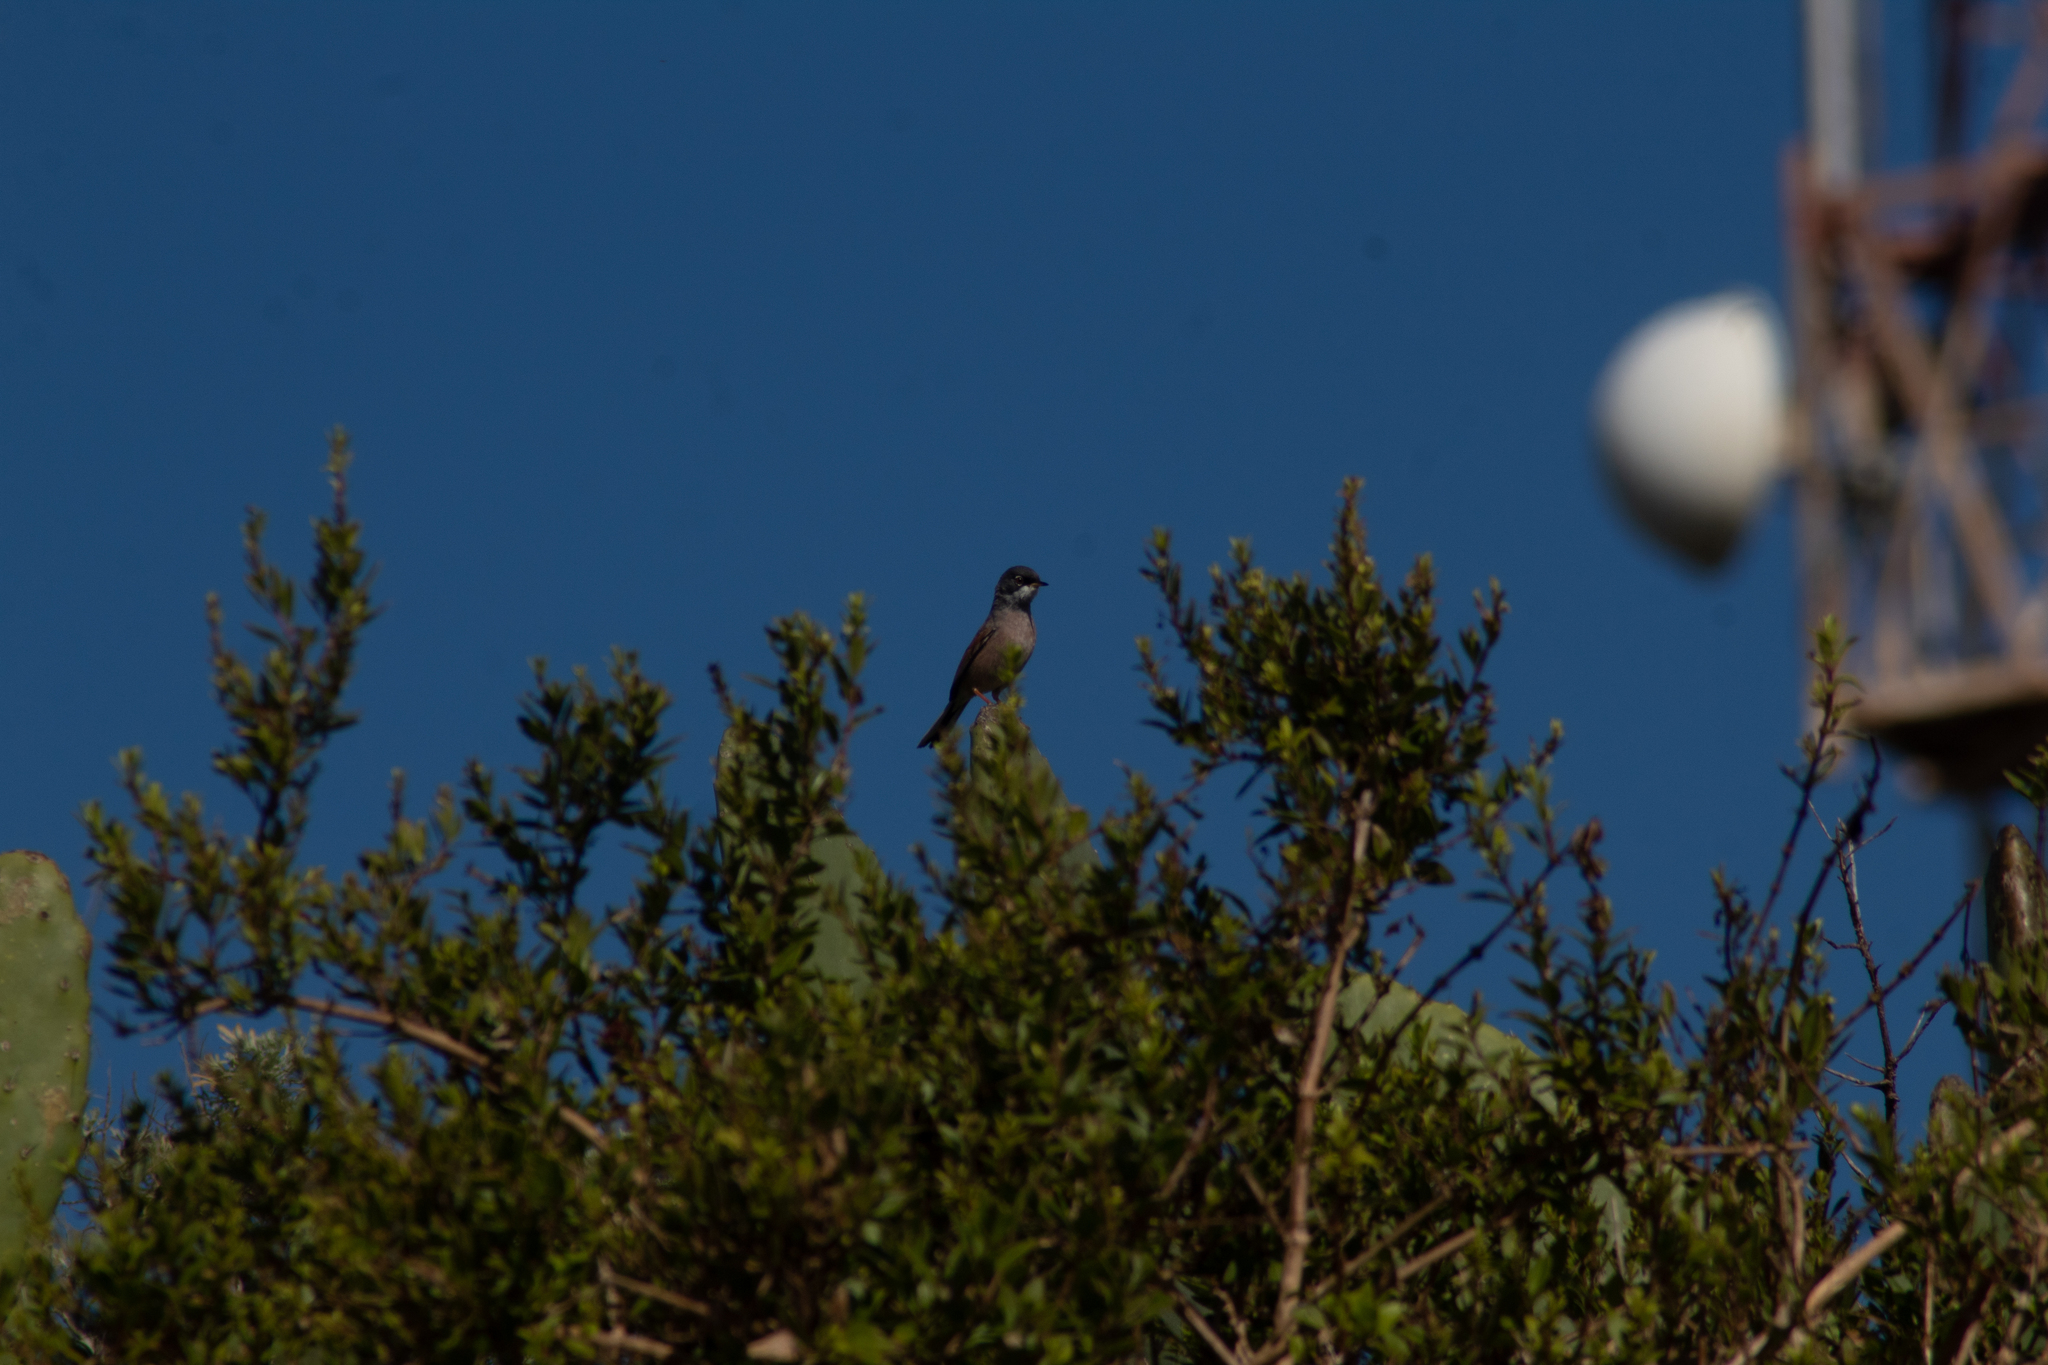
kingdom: Animalia
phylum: Chordata
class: Aves
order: Passeriformes
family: Sylviidae
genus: Sylvia
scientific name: Sylvia conspicillata
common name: Spectacled warbler
